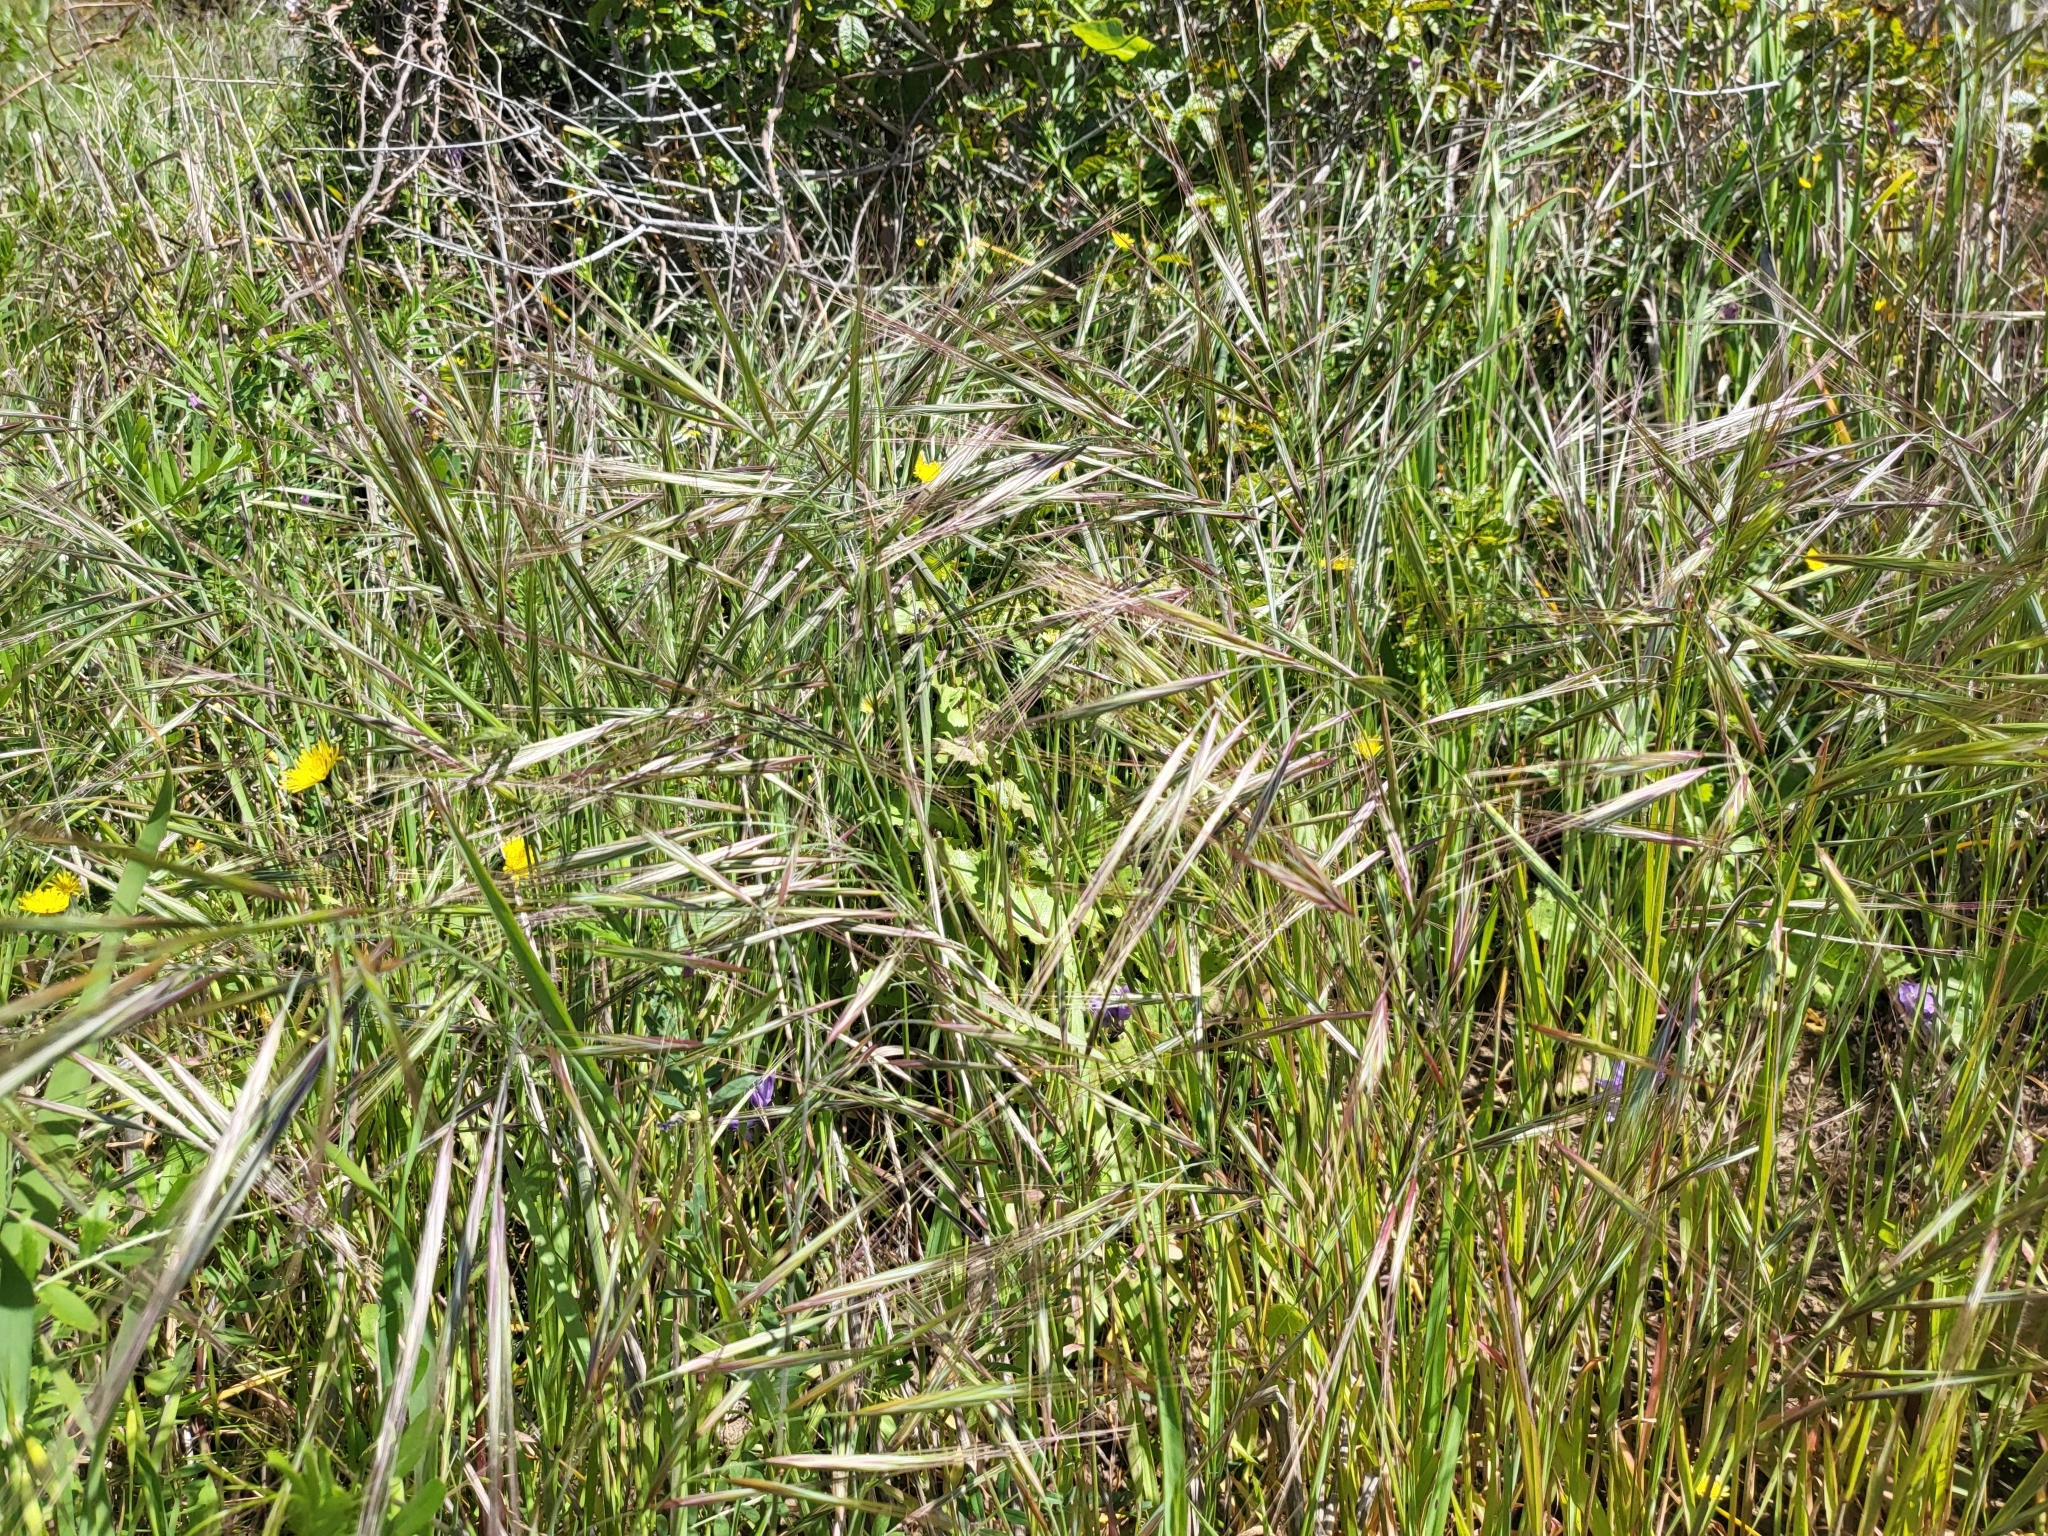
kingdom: Plantae
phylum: Tracheophyta
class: Liliopsida
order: Poales
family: Poaceae
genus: Bromus
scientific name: Bromus diandrus
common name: Ripgut brome
